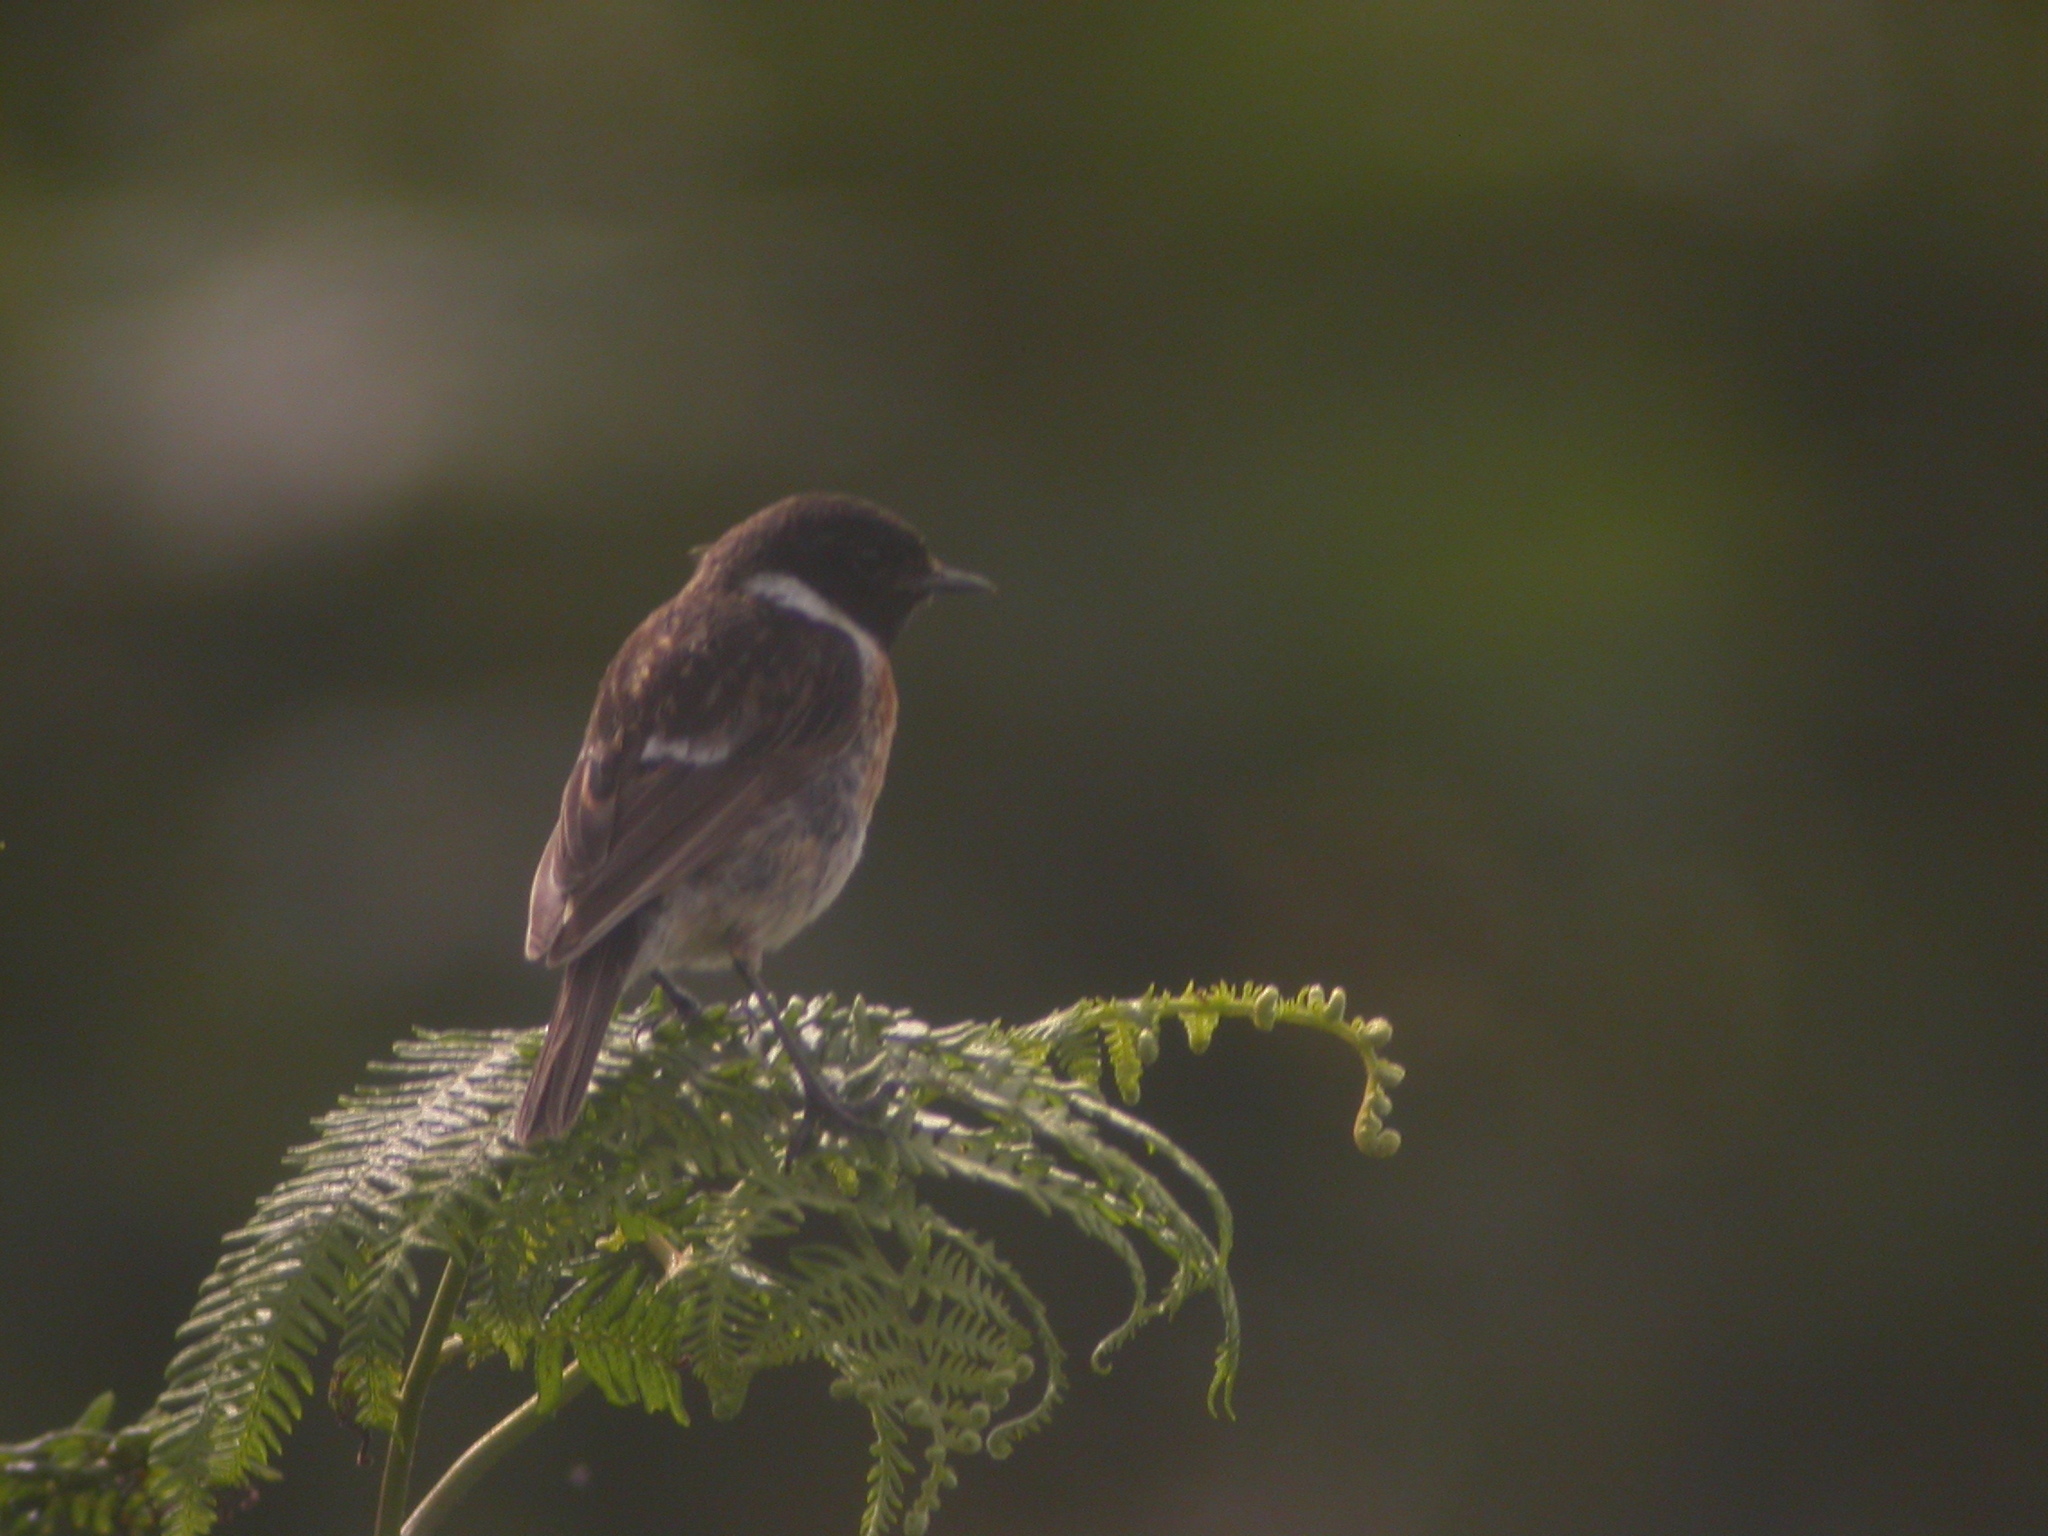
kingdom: Animalia
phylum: Chordata
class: Aves
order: Passeriformes
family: Muscicapidae
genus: Saxicola
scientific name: Saxicola rubicola
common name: European stonechat
